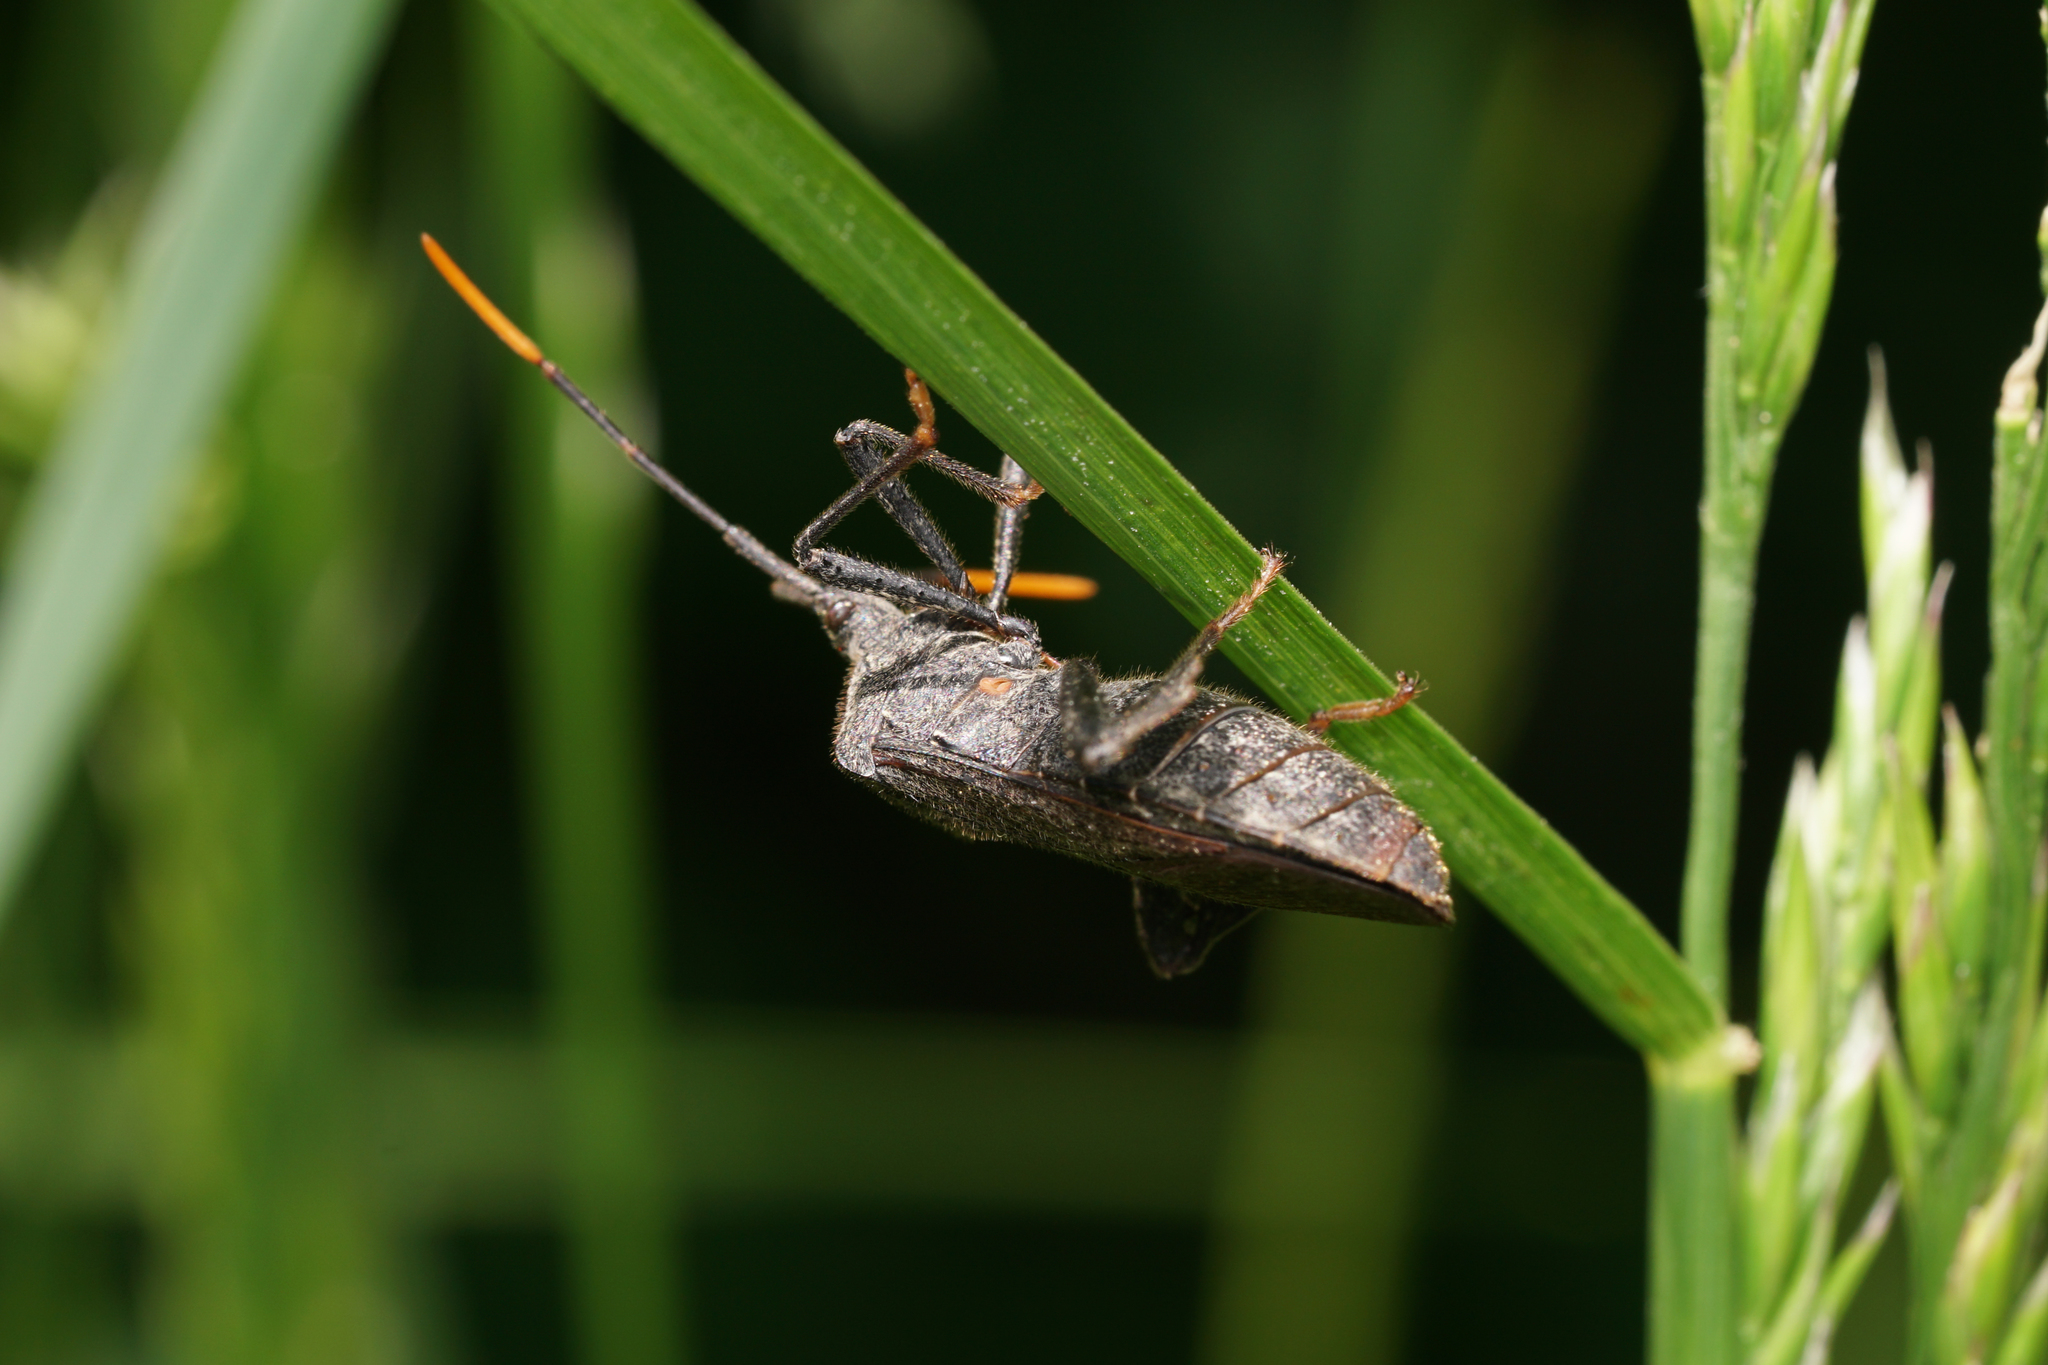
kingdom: Animalia
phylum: Arthropoda
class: Insecta
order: Hemiptera
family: Coreidae
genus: Acanthocephala
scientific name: Acanthocephala terminalis
